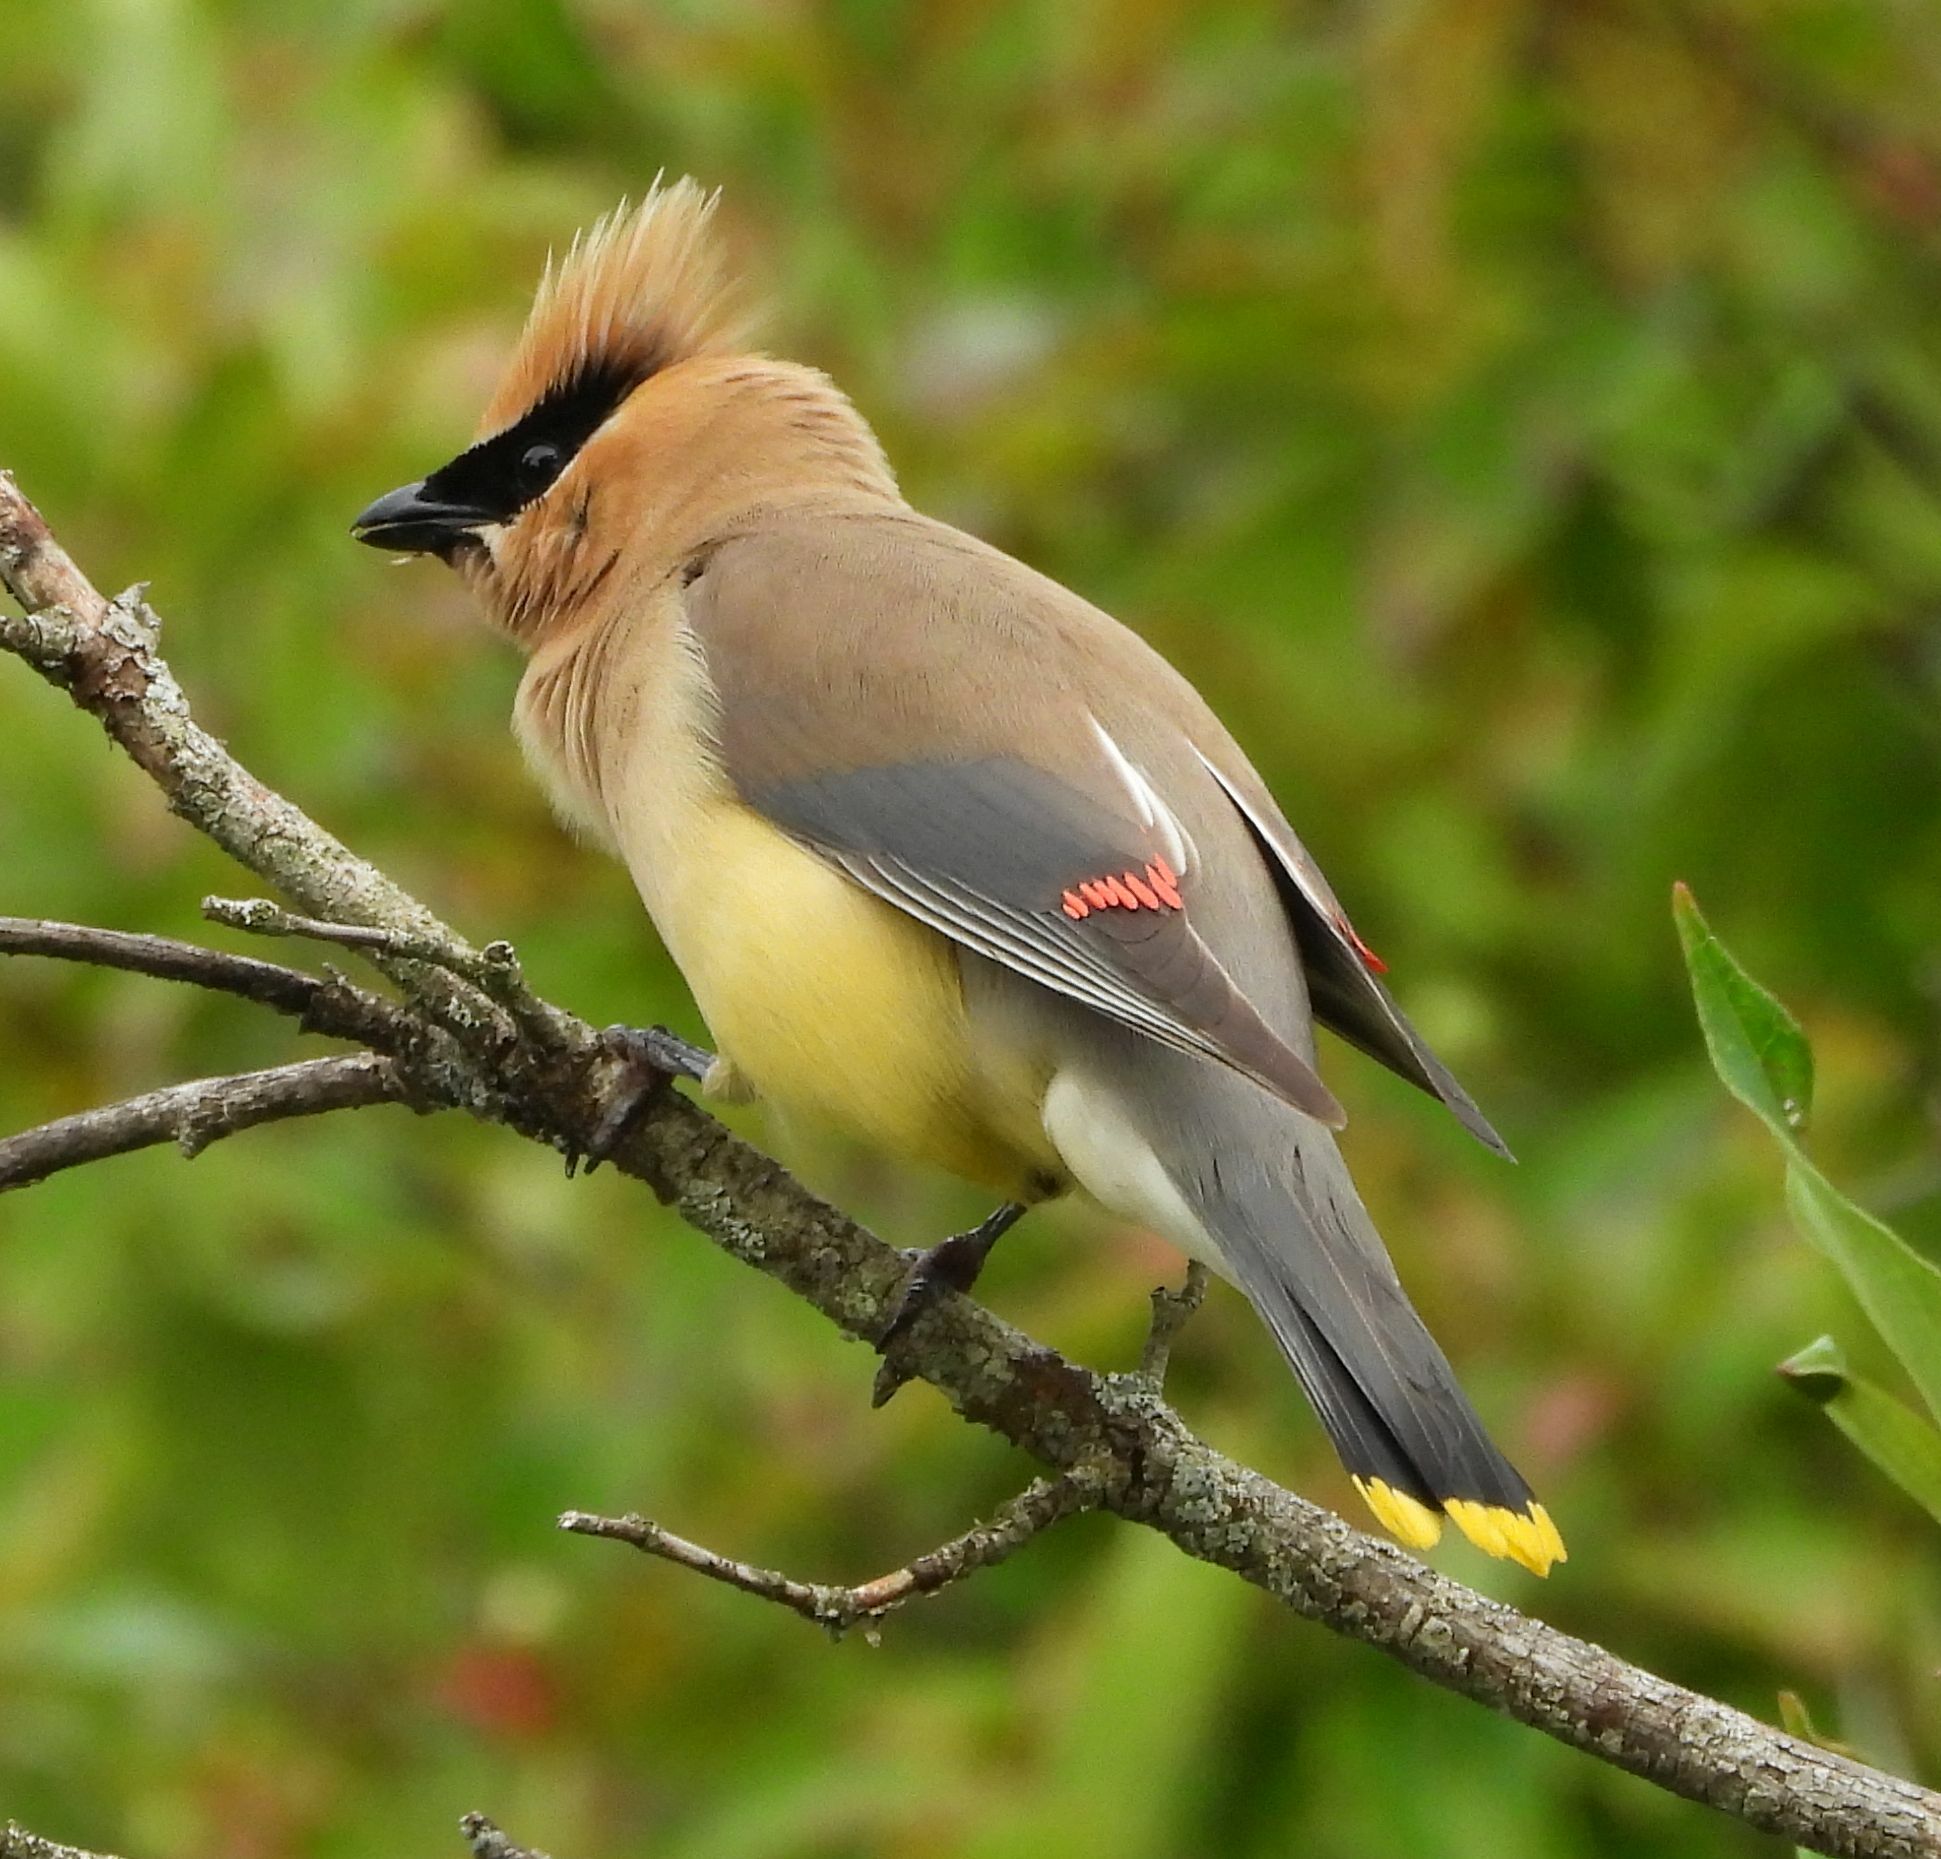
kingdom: Animalia
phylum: Chordata
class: Aves
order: Passeriformes
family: Bombycillidae
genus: Bombycilla
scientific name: Bombycilla cedrorum
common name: Cedar waxwing
